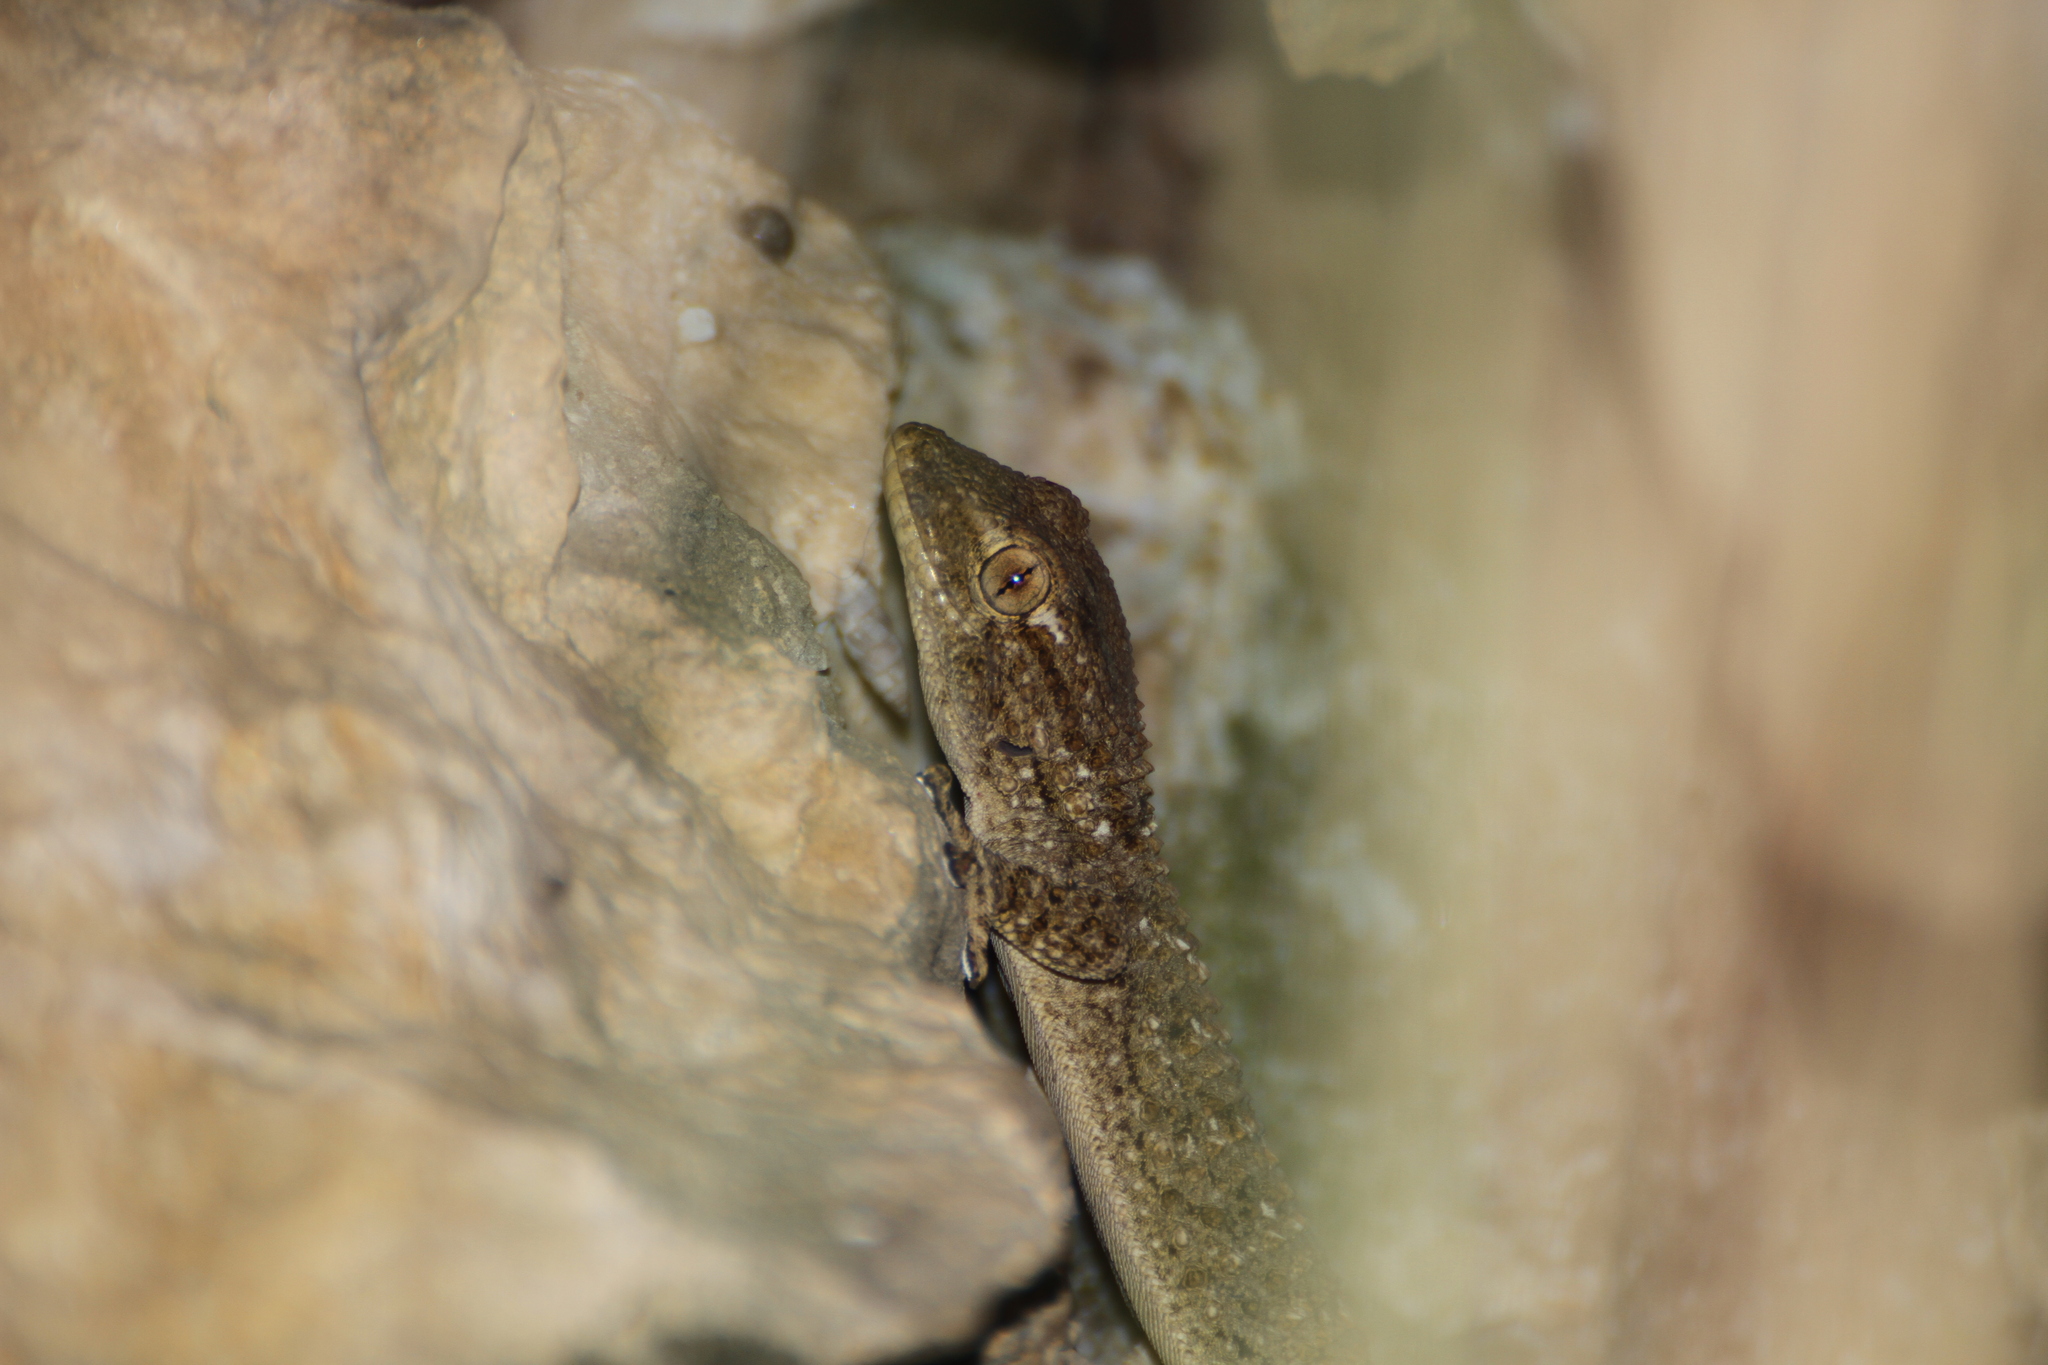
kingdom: Animalia
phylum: Chordata
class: Squamata
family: Phyllodactylidae
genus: Tarentola
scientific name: Tarentola mauritanica
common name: Moorish gecko
